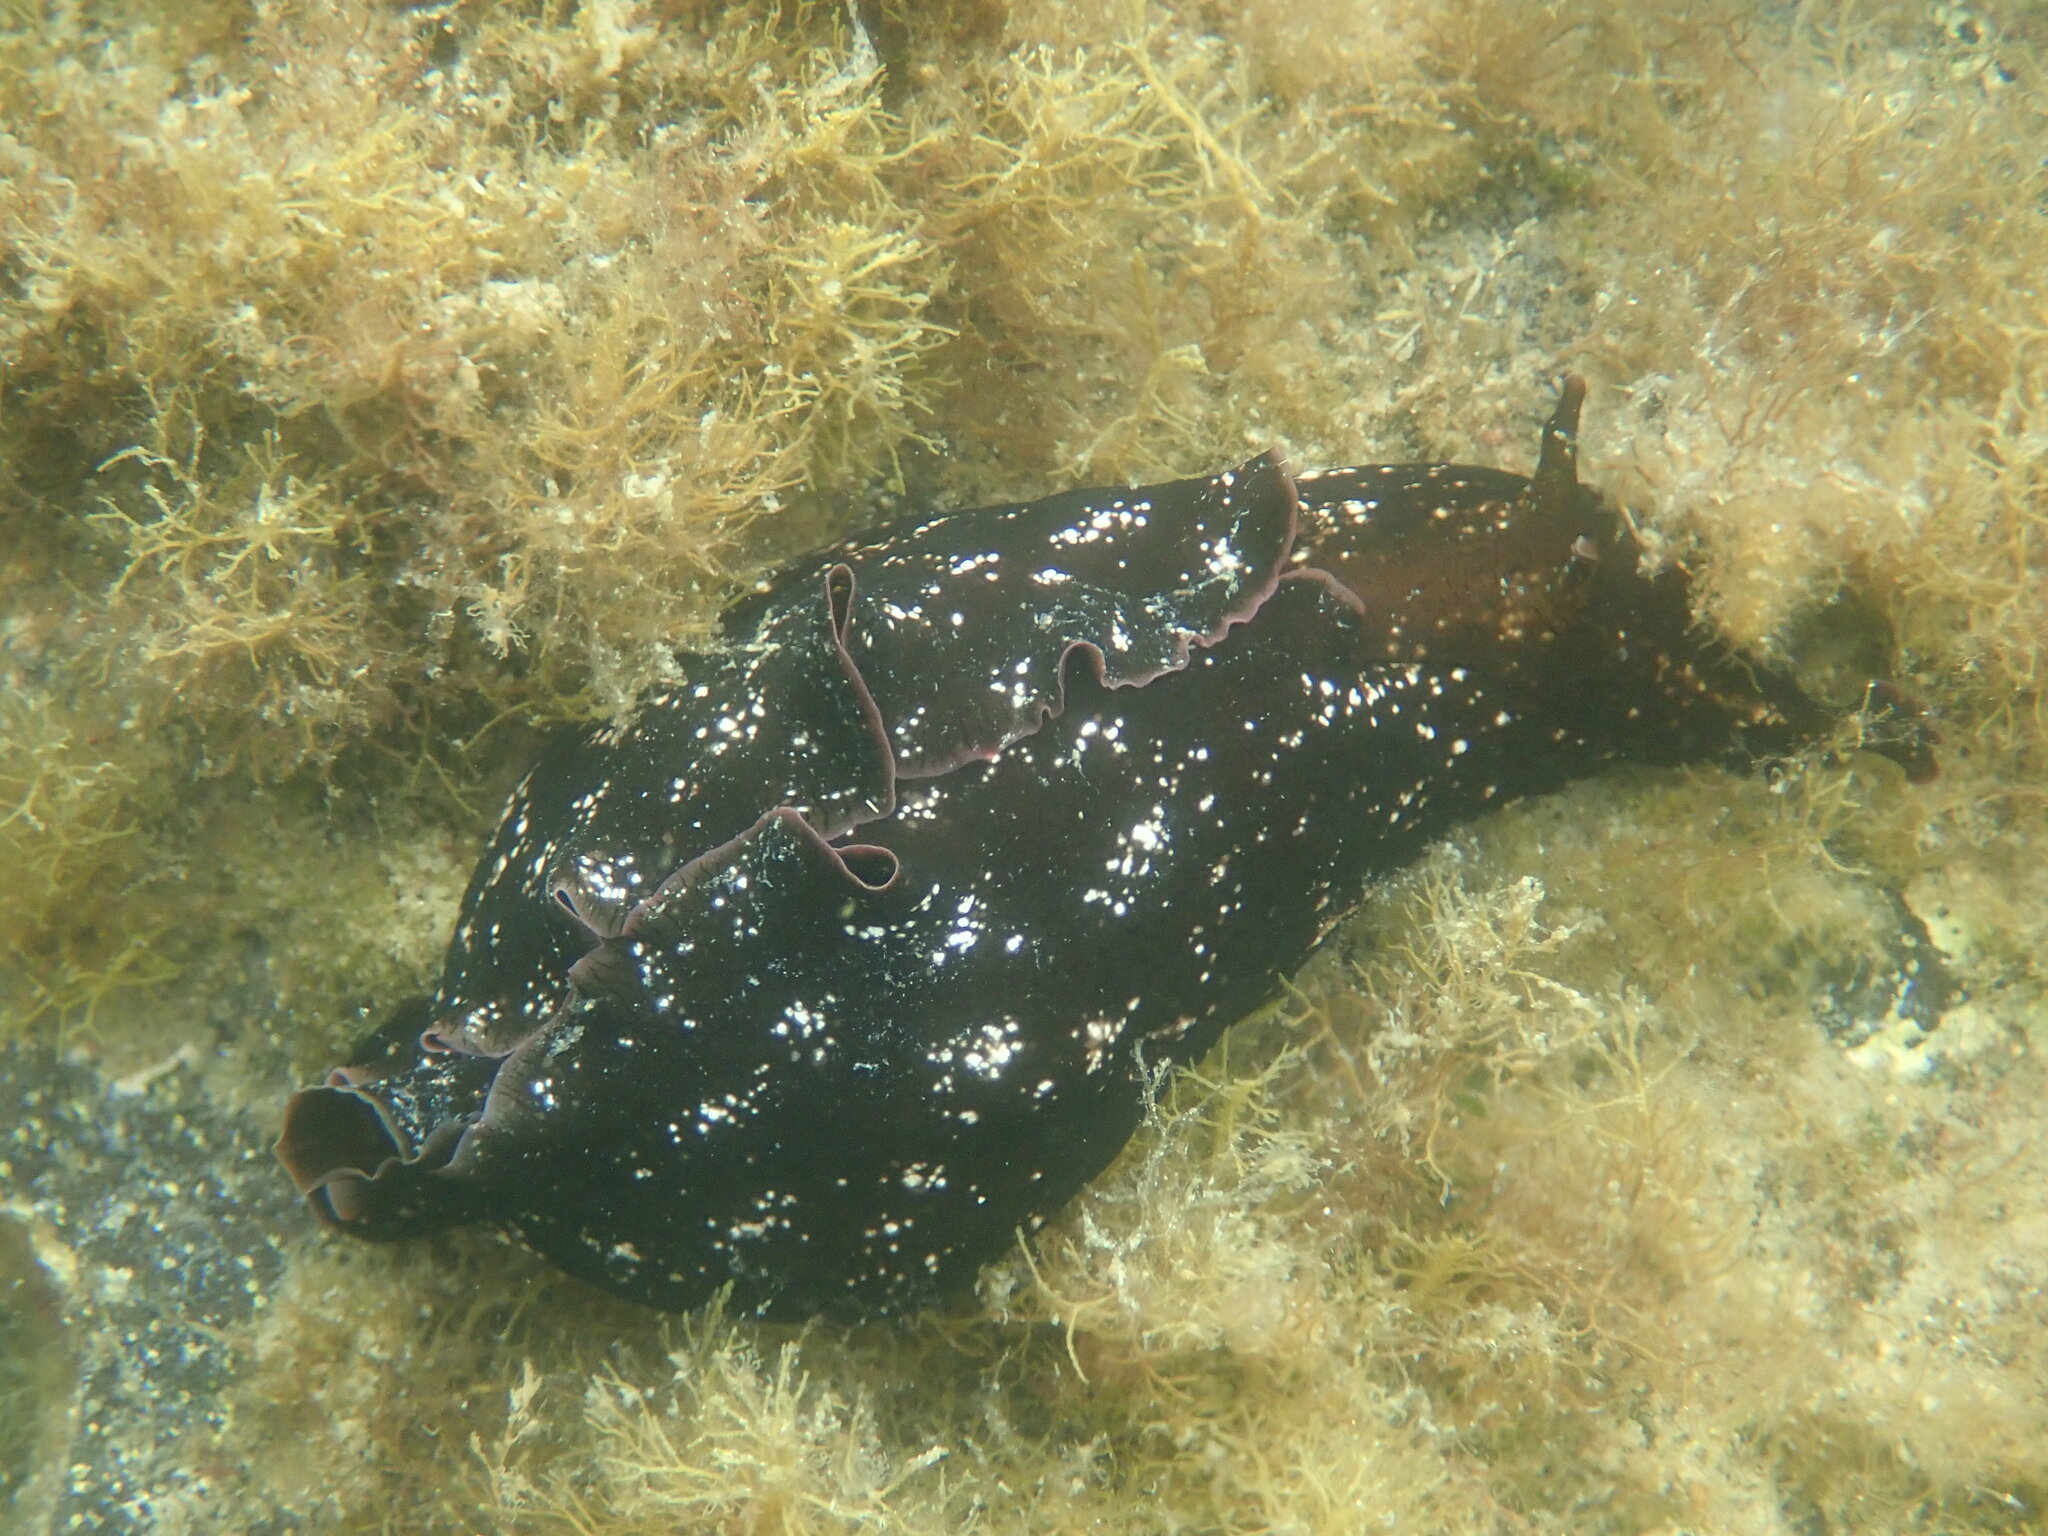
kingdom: Animalia
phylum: Mollusca
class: Gastropoda
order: Aplysiida
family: Aplysiidae
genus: Aplysia
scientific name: Aplysia fasciata
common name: Banded sea hare
